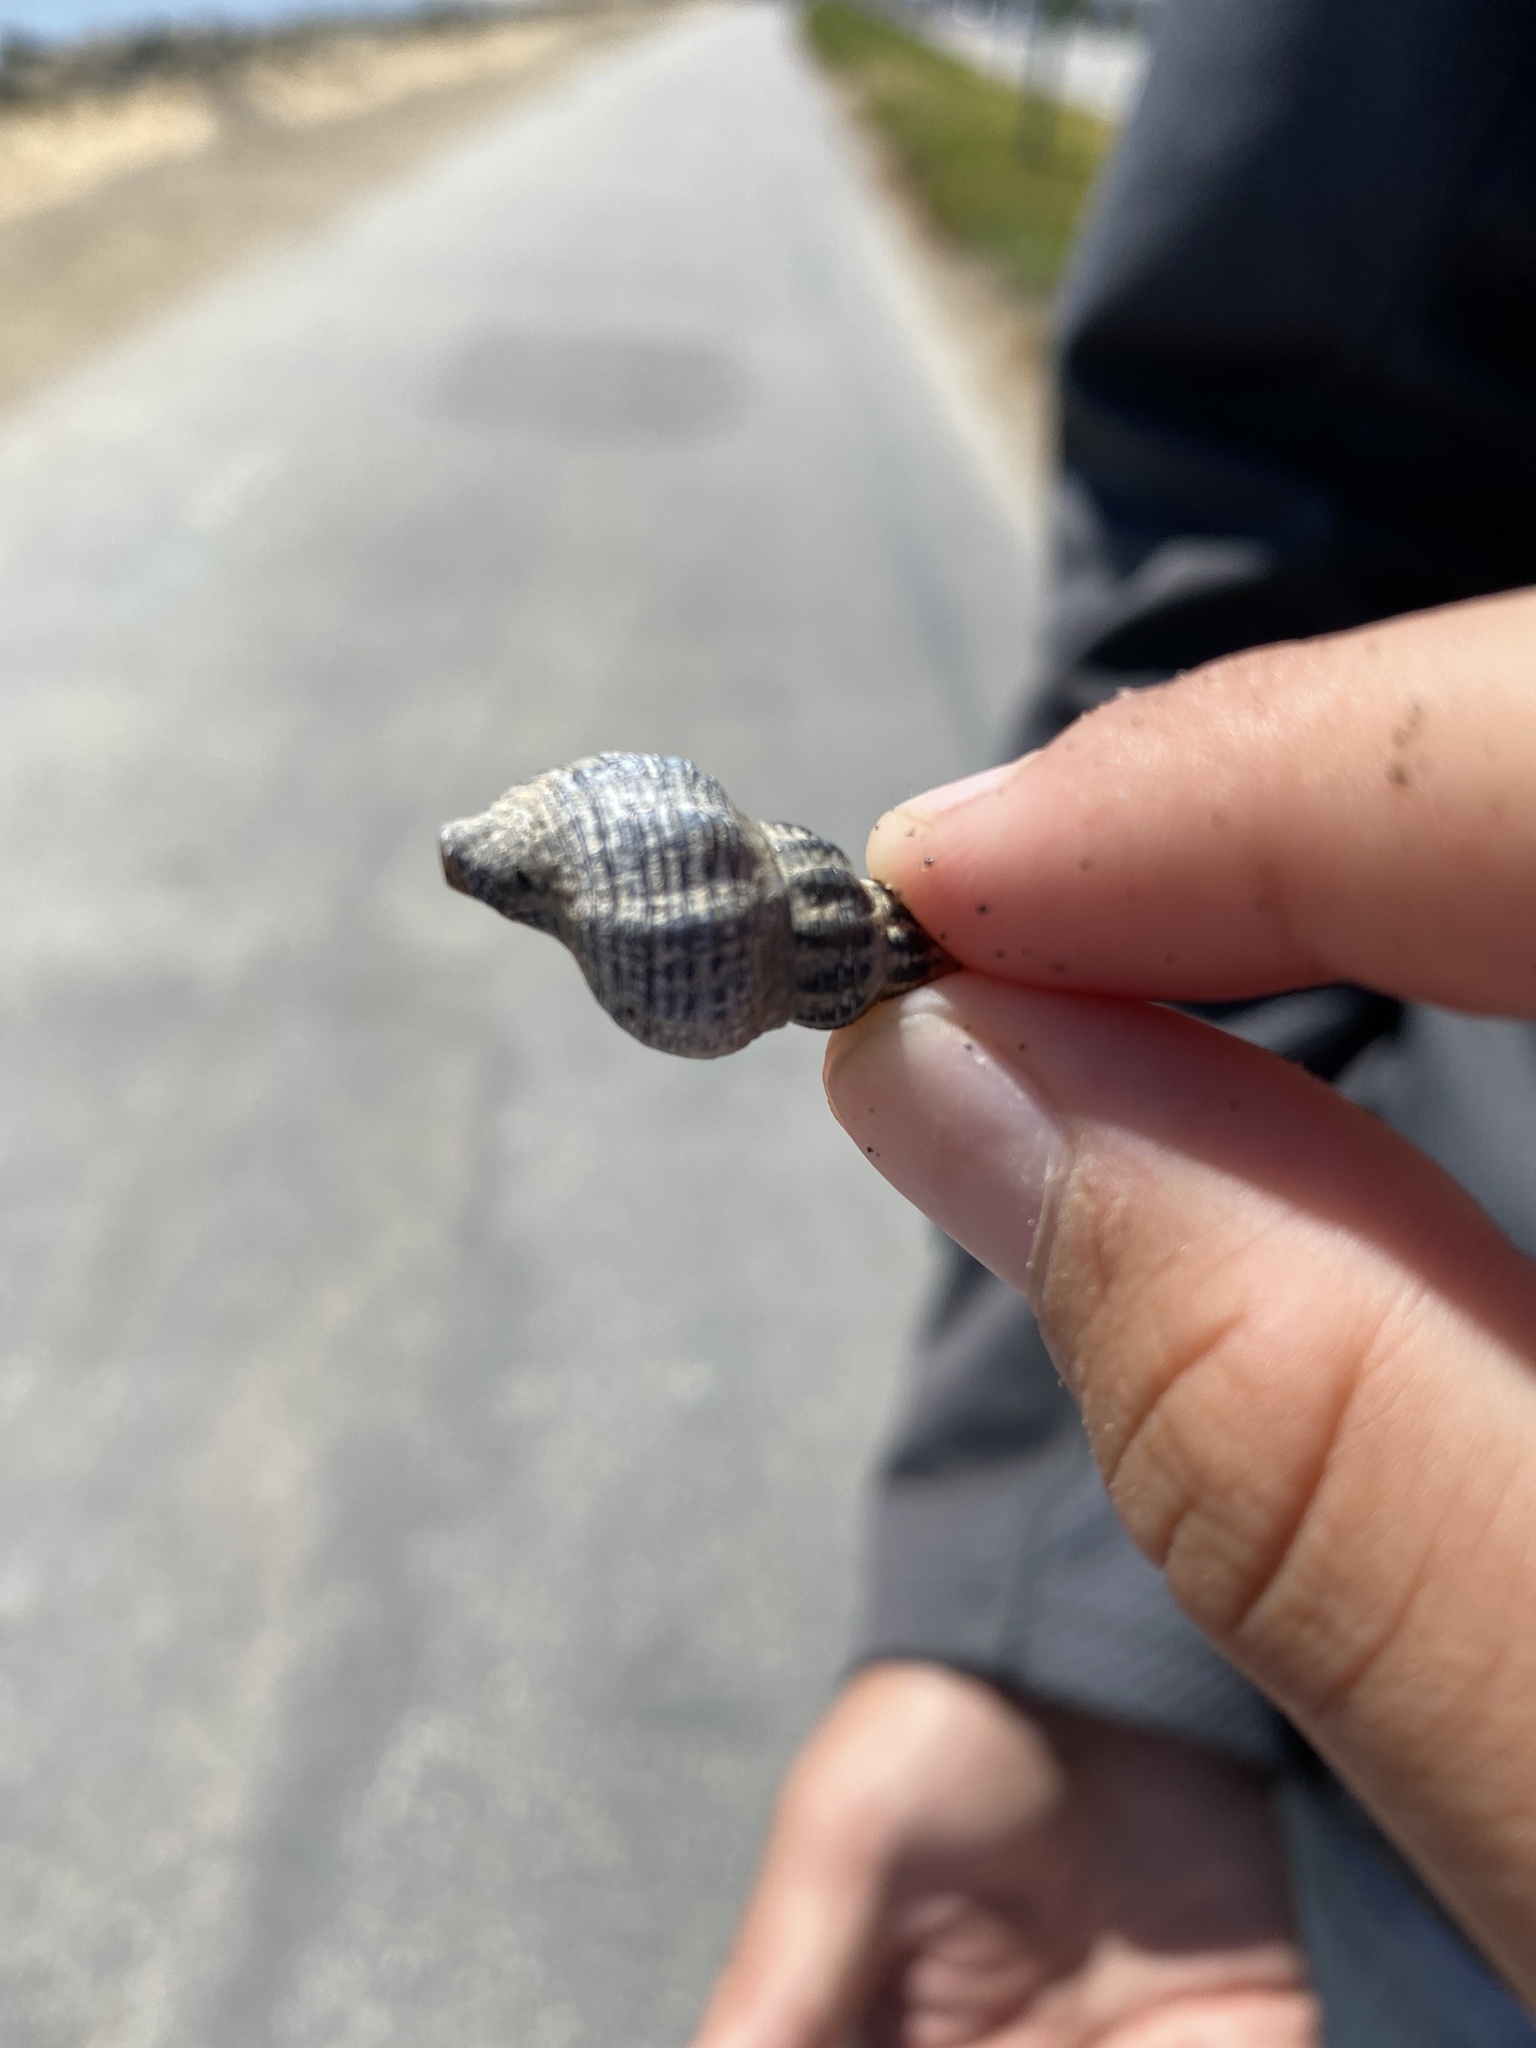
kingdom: Animalia
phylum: Mollusca
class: Gastropoda
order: Neogastropoda
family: Muricidae
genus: Urosalpinx
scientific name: Urosalpinx cinerea
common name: American sting winkle
